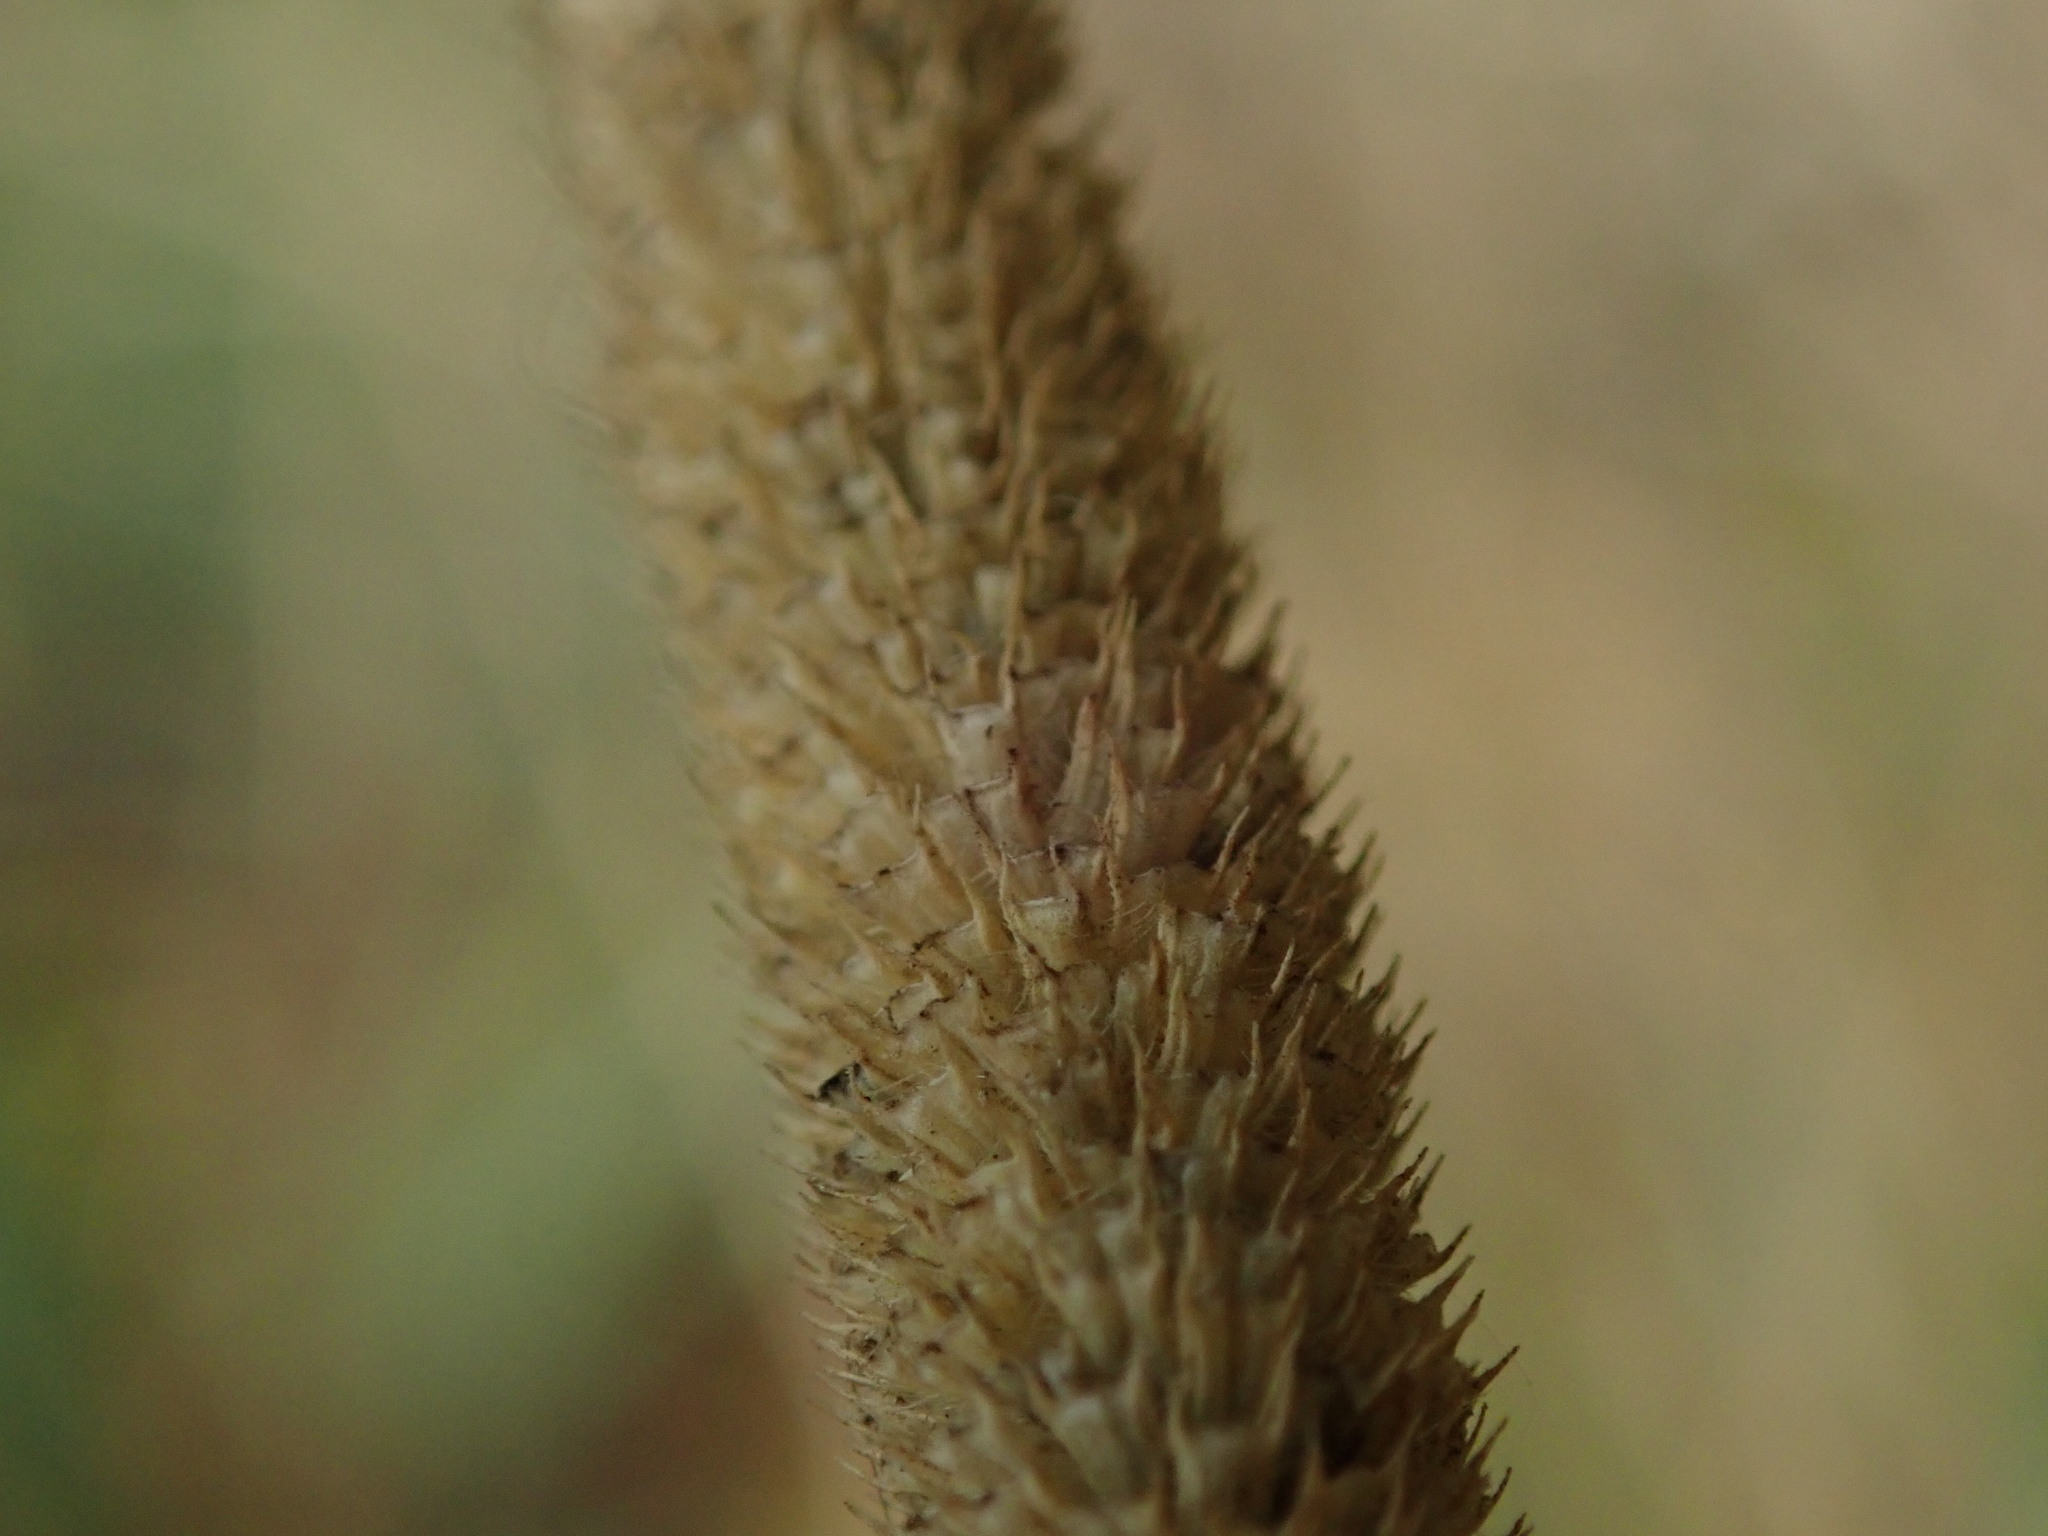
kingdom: Plantae
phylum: Tracheophyta
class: Liliopsida
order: Poales
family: Poaceae
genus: Phleum
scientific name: Phleum pratense
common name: Timothy grass
